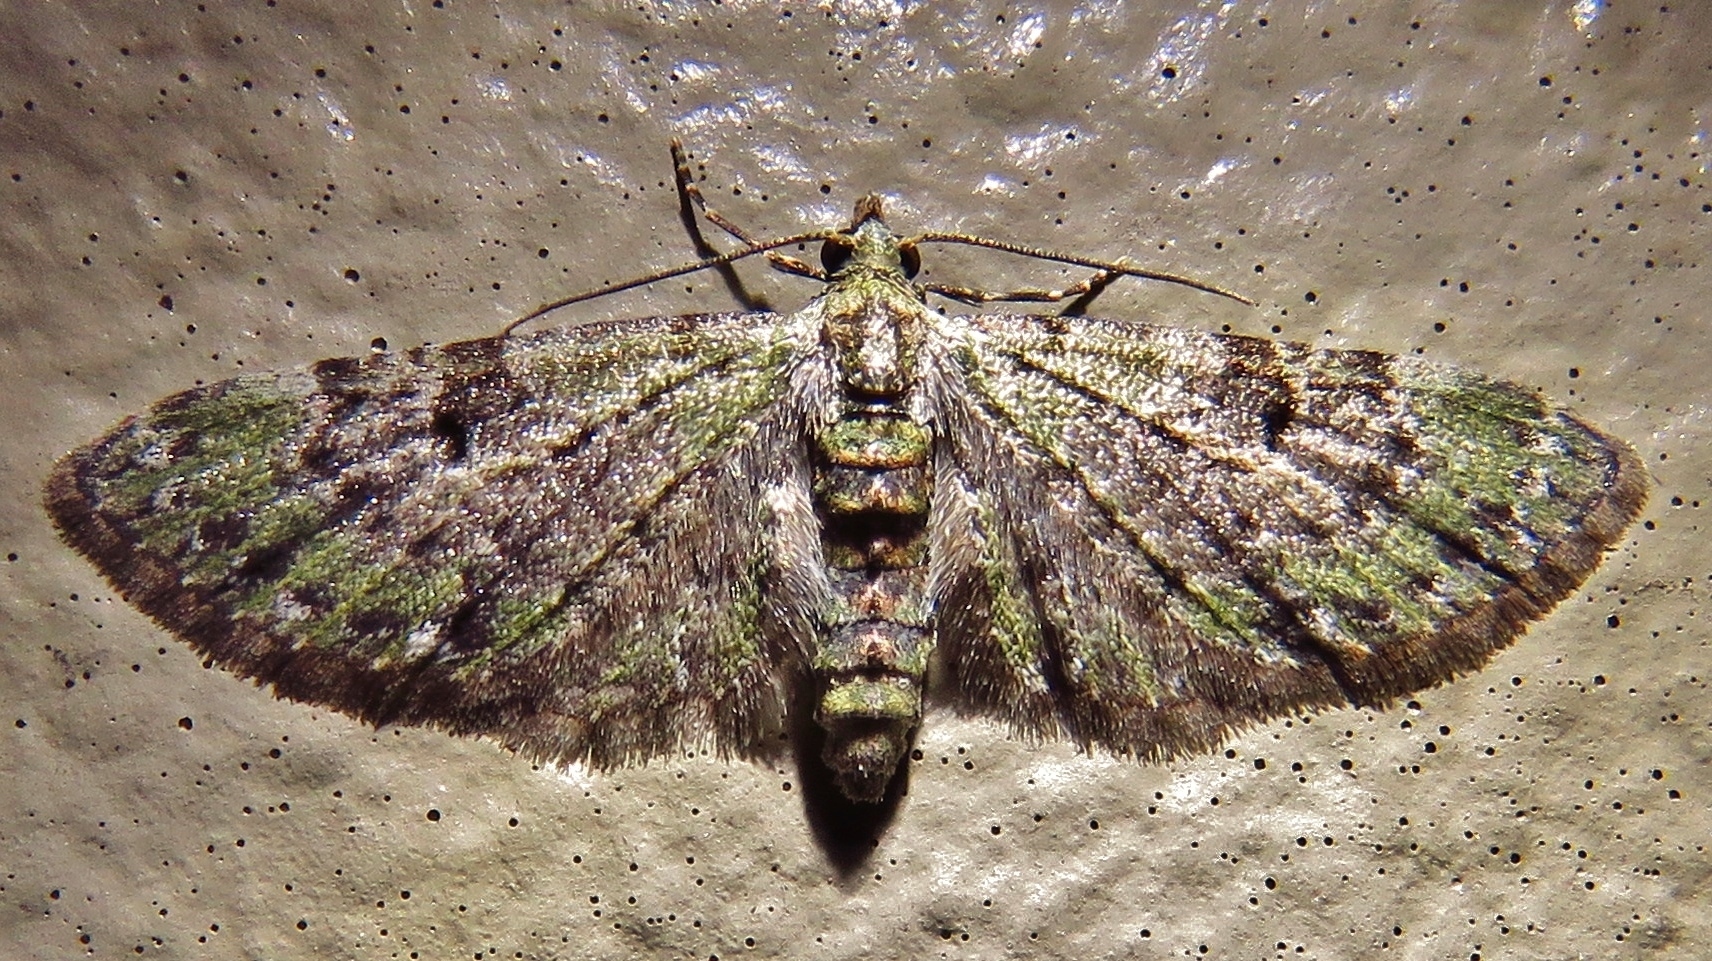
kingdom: Animalia
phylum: Arthropoda
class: Insecta
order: Lepidoptera
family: Geometridae
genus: Eupithecia
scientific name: Eupithecia miserulata
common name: Common eupithecia
